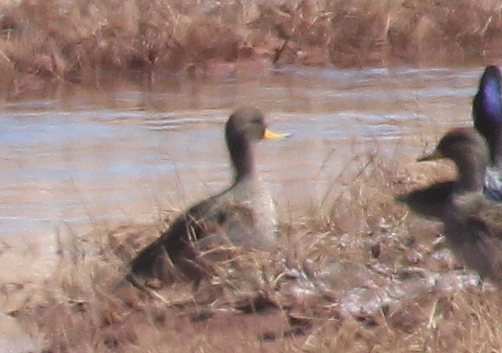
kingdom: Animalia
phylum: Chordata
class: Aves
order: Anseriformes
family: Anatidae
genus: Anas
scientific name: Anas flavirostris
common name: Yellow-billed teal
